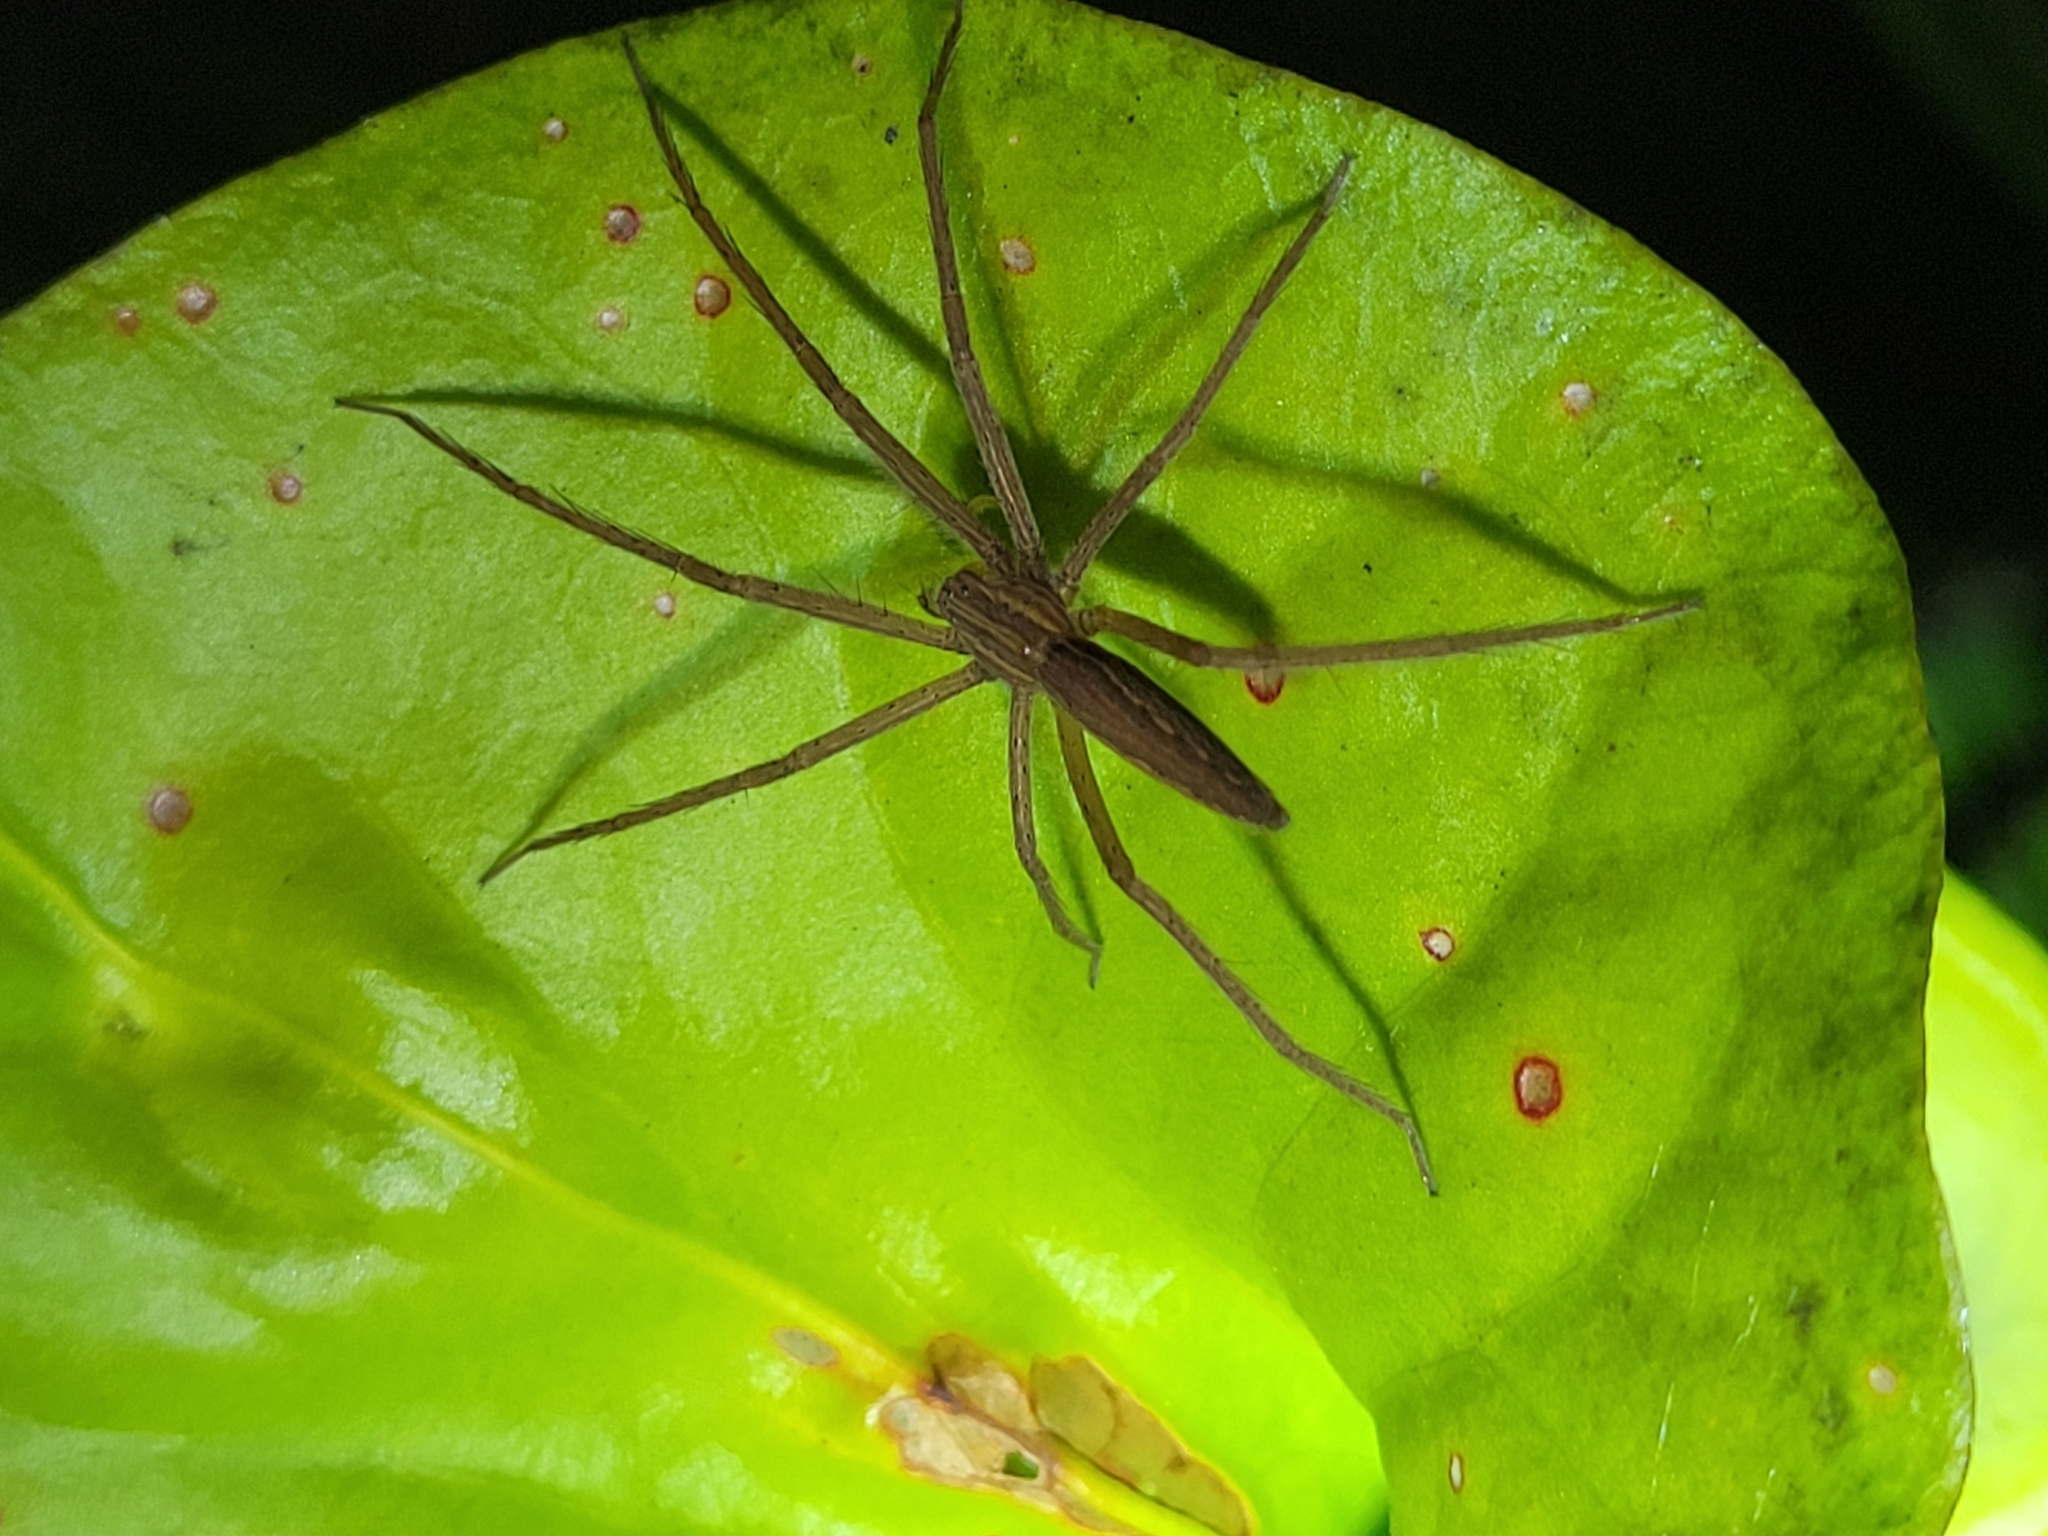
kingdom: Animalia
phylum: Arthropoda
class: Arachnida
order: Araneae
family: Pisauridae
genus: Pisaurina
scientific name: Pisaurina undulata
